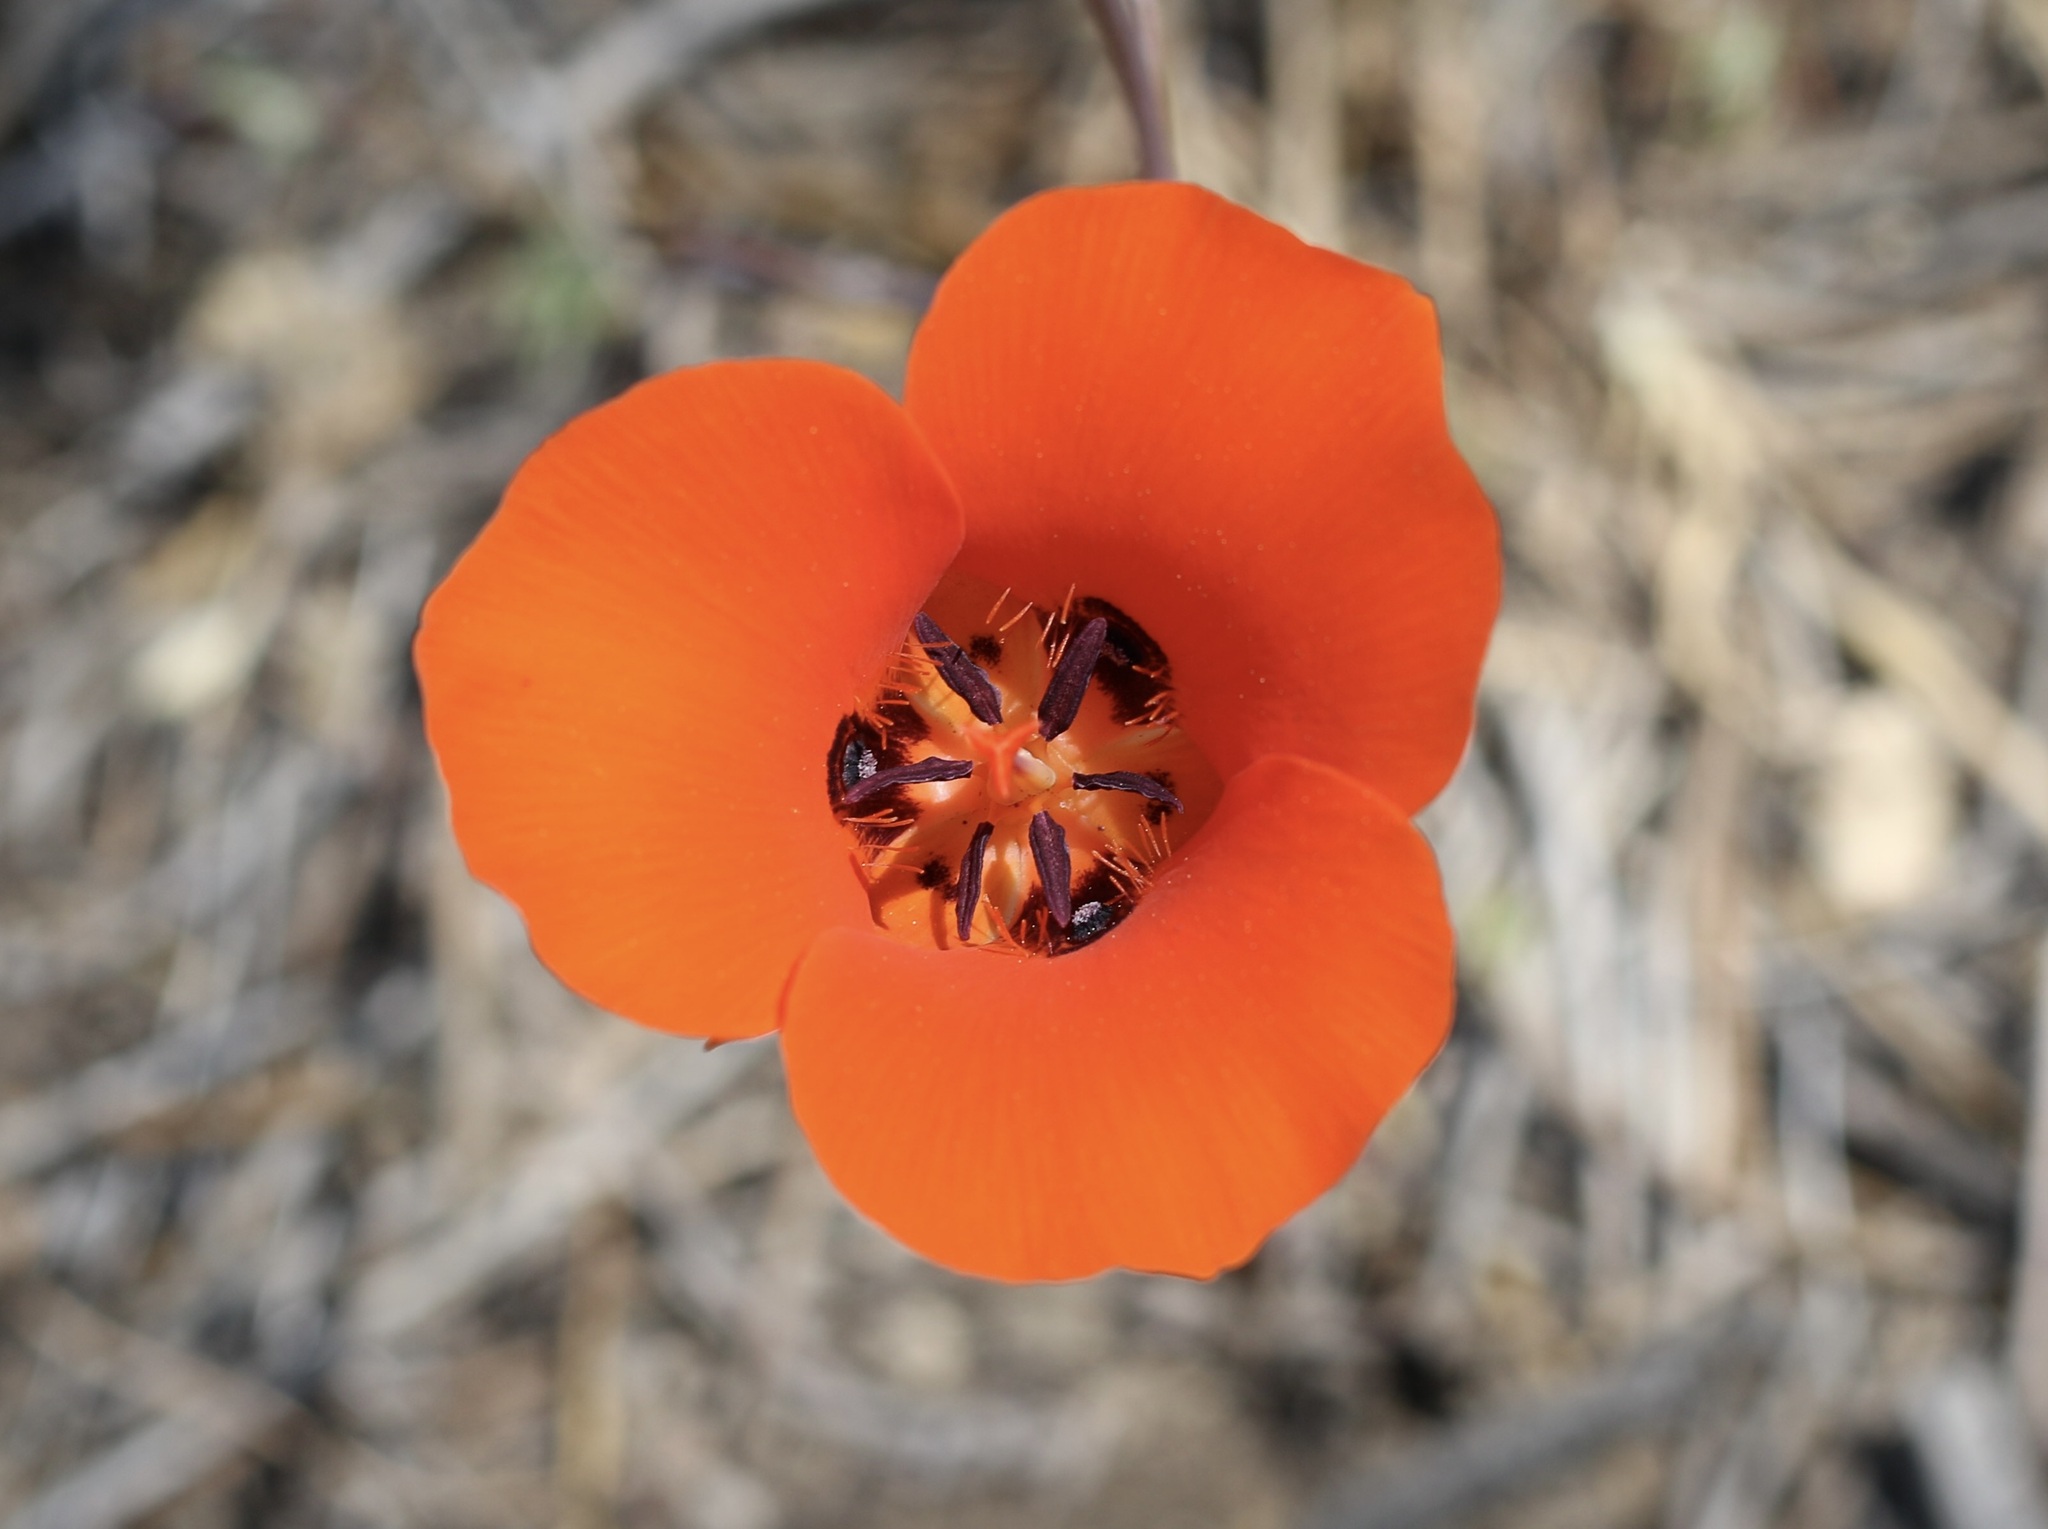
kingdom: Plantae
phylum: Tracheophyta
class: Liliopsida
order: Liliales
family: Liliaceae
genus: Calochortus
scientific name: Calochortus kennedyi
